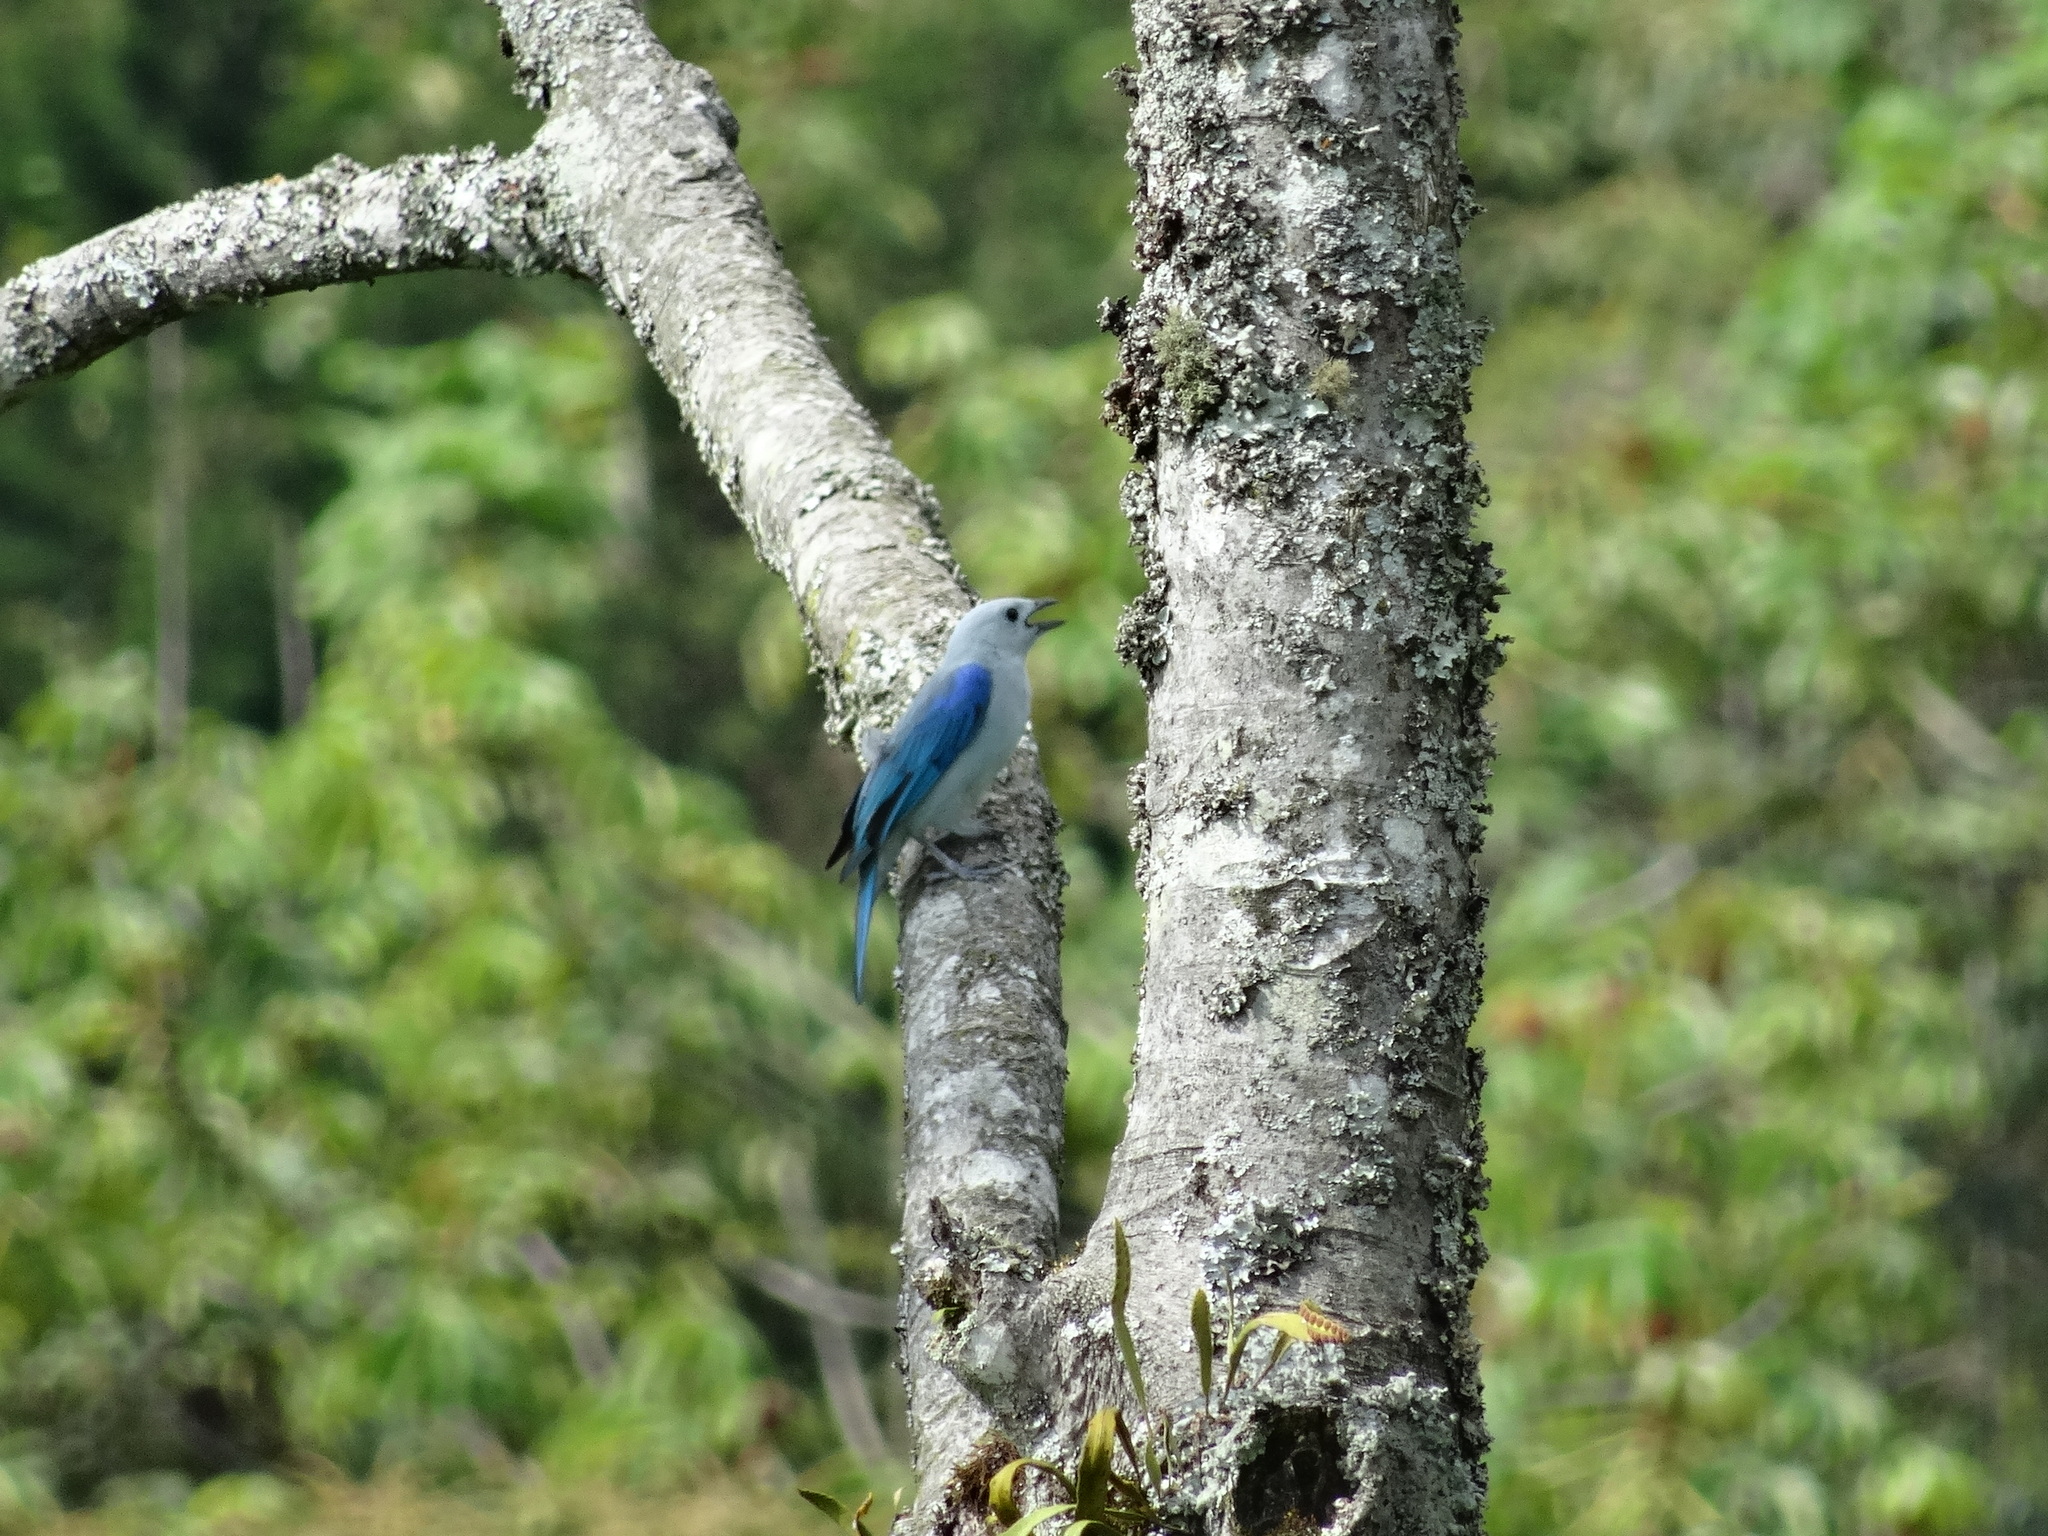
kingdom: Animalia
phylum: Chordata
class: Aves
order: Passeriformes
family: Thraupidae
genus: Thraupis
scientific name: Thraupis episcopus
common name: Blue-grey tanager
